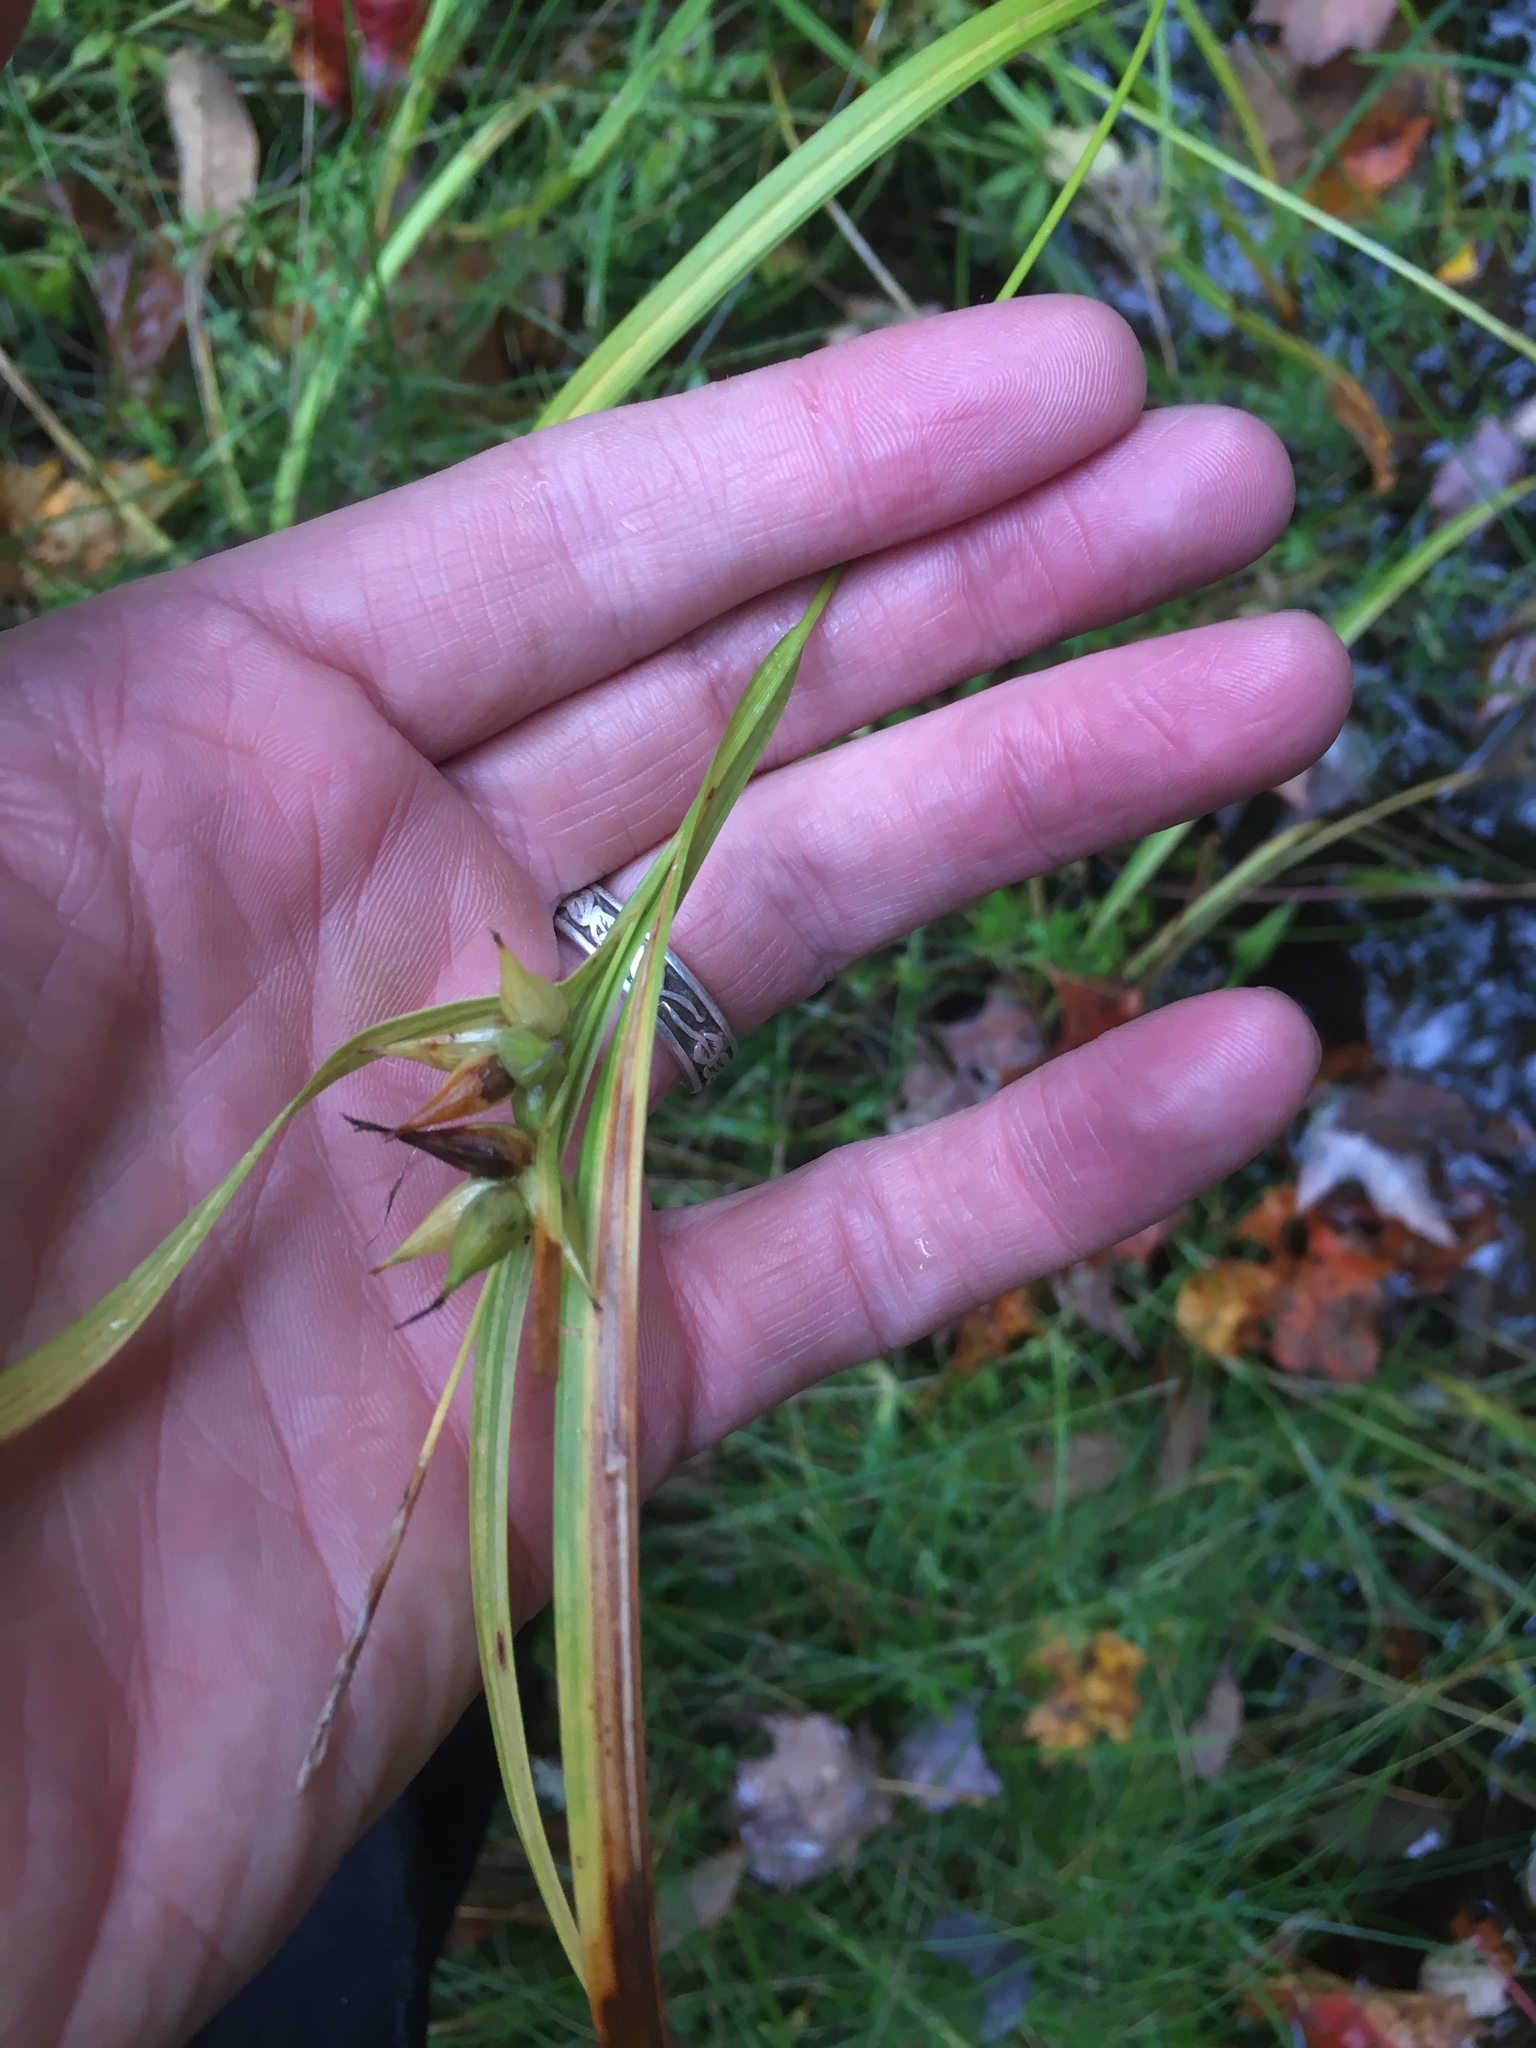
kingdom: Plantae
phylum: Tracheophyta
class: Liliopsida
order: Poales
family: Cyperaceae
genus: Carex
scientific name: Carex intumescens
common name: Greater bladder sedge
